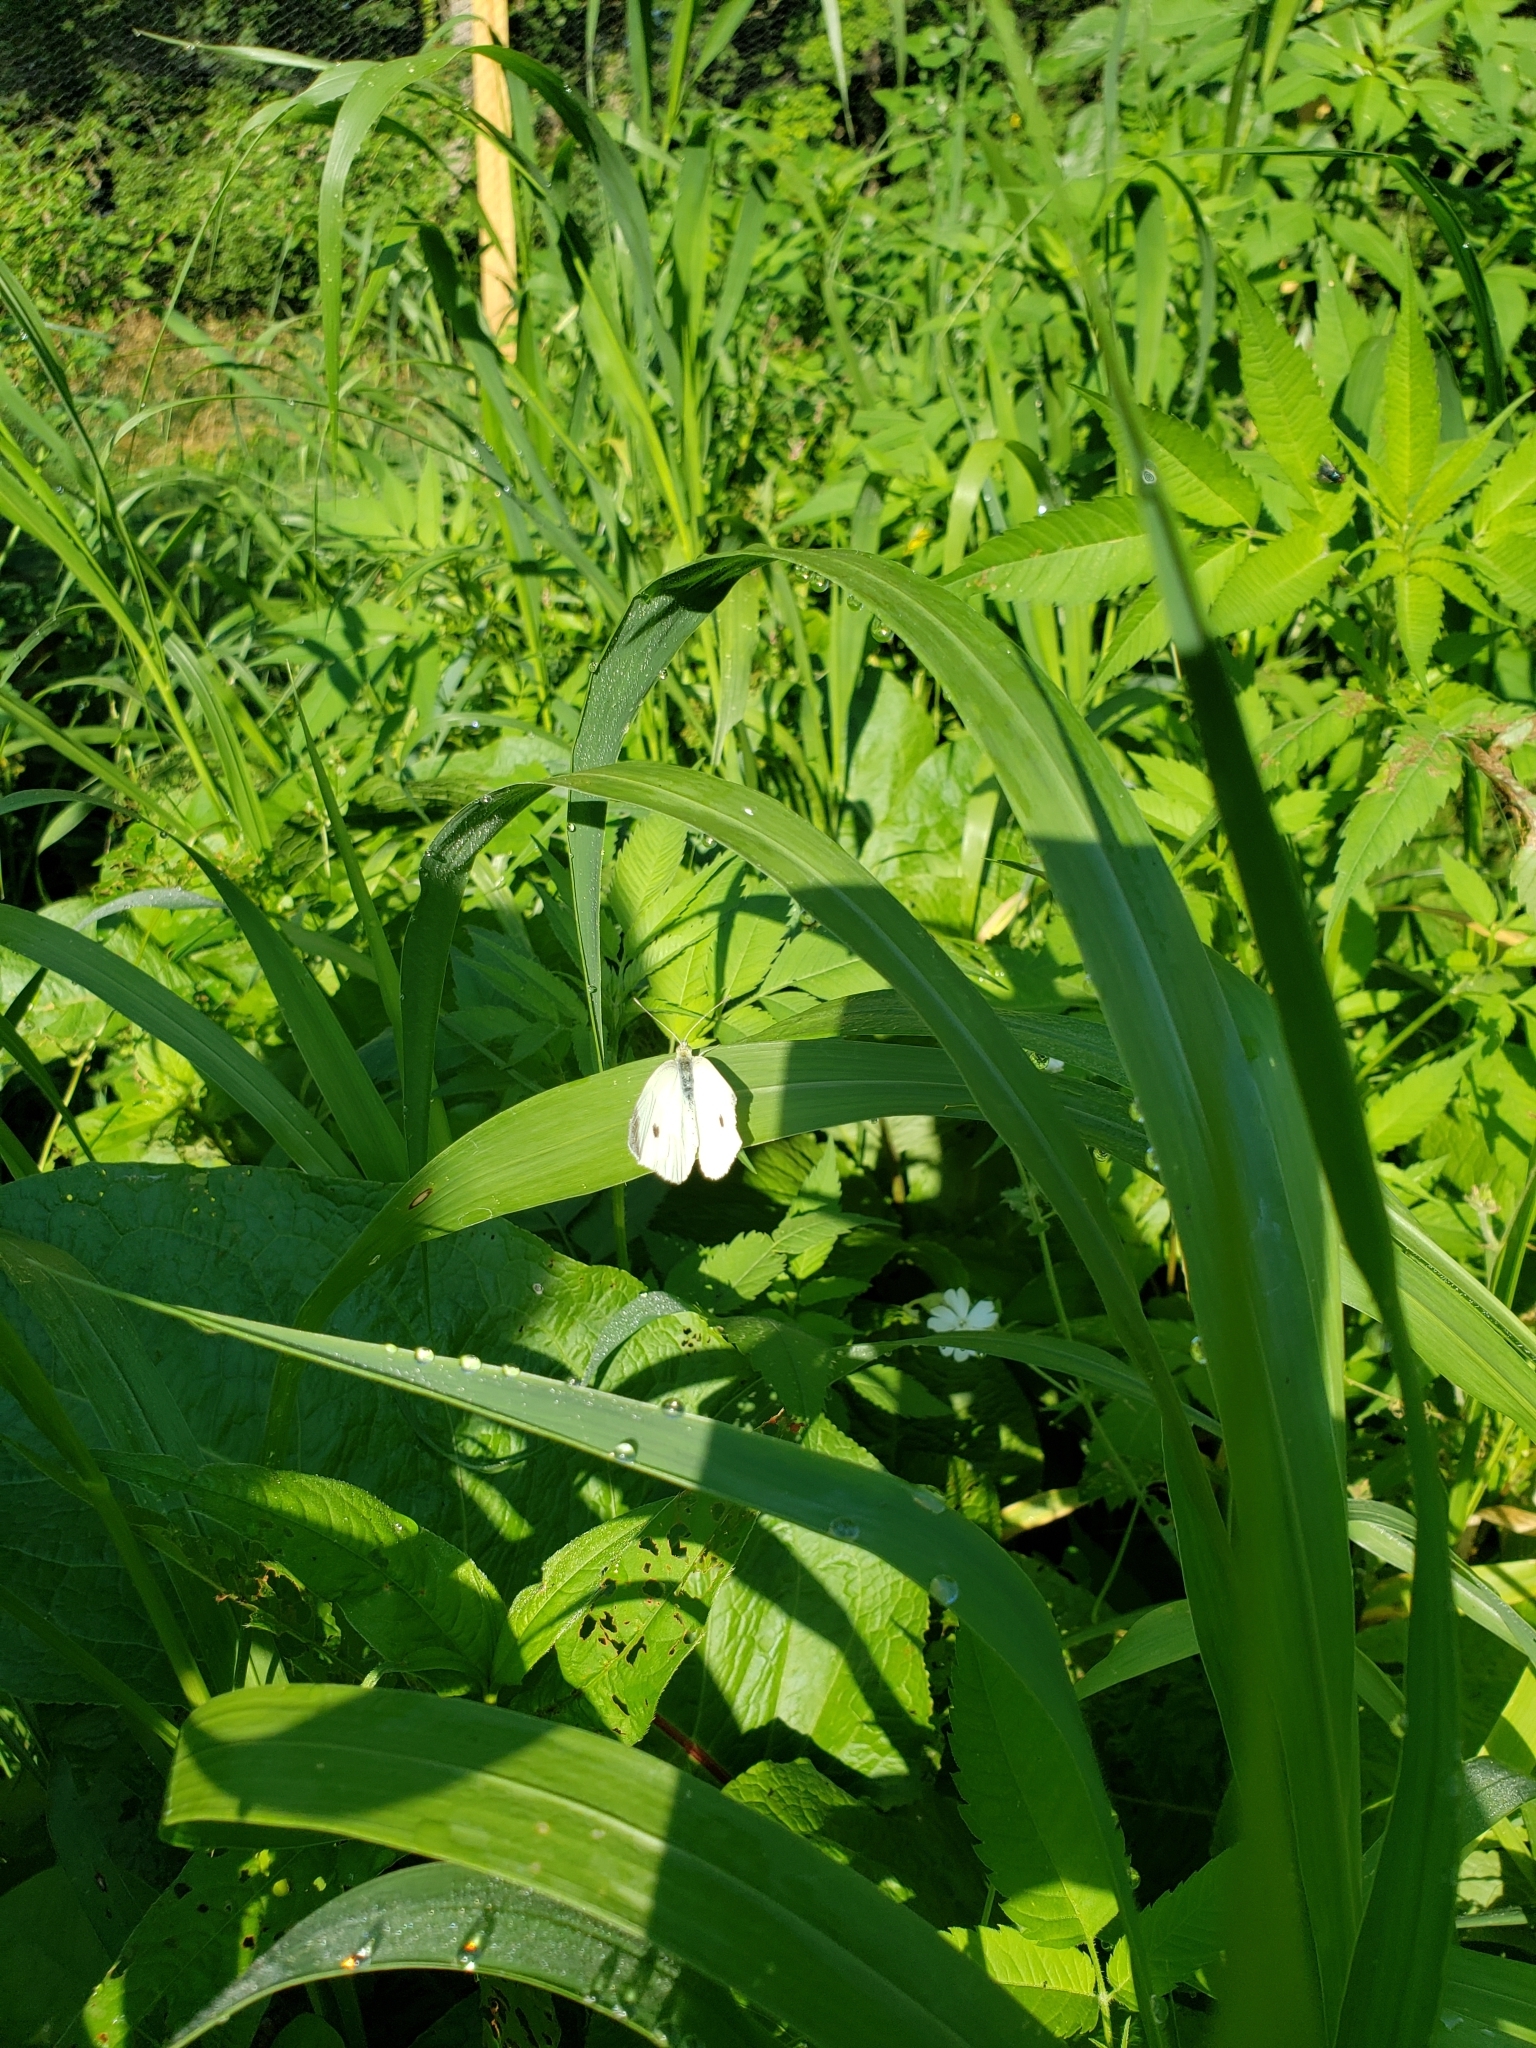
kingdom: Animalia
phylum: Arthropoda
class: Insecta
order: Lepidoptera
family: Pieridae
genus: Pieris
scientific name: Pieris rapae
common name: Small white
